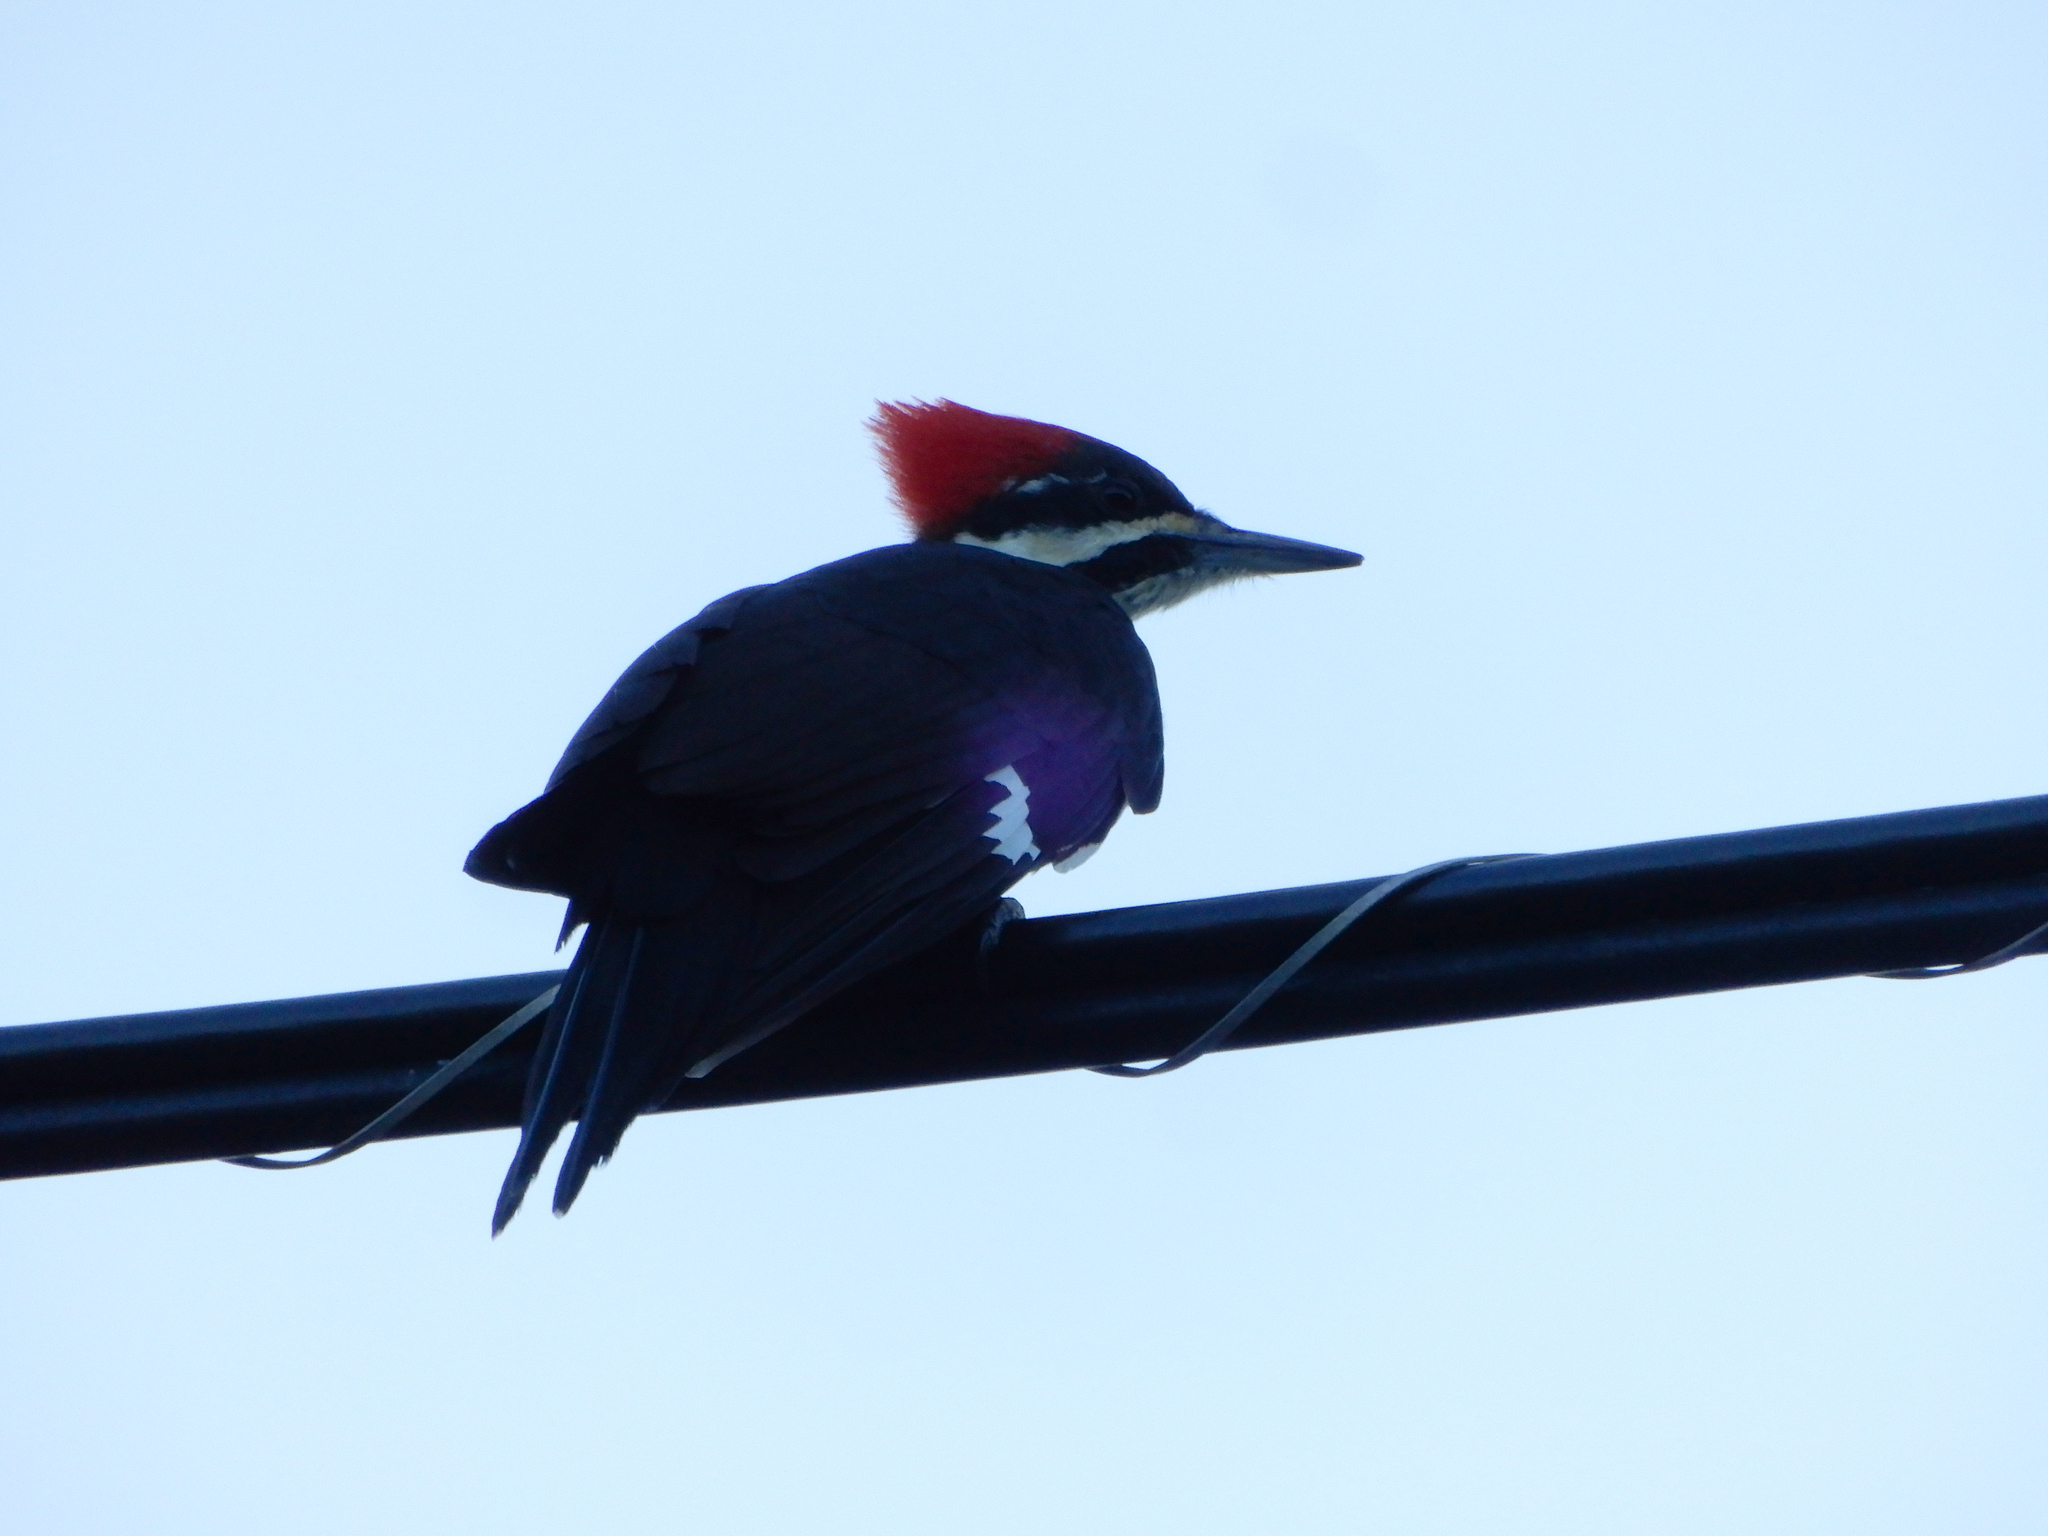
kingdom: Animalia
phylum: Chordata
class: Aves
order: Piciformes
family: Picidae
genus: Dryocopus
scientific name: Dryocopus pileatus
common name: Pileated woodpecker
